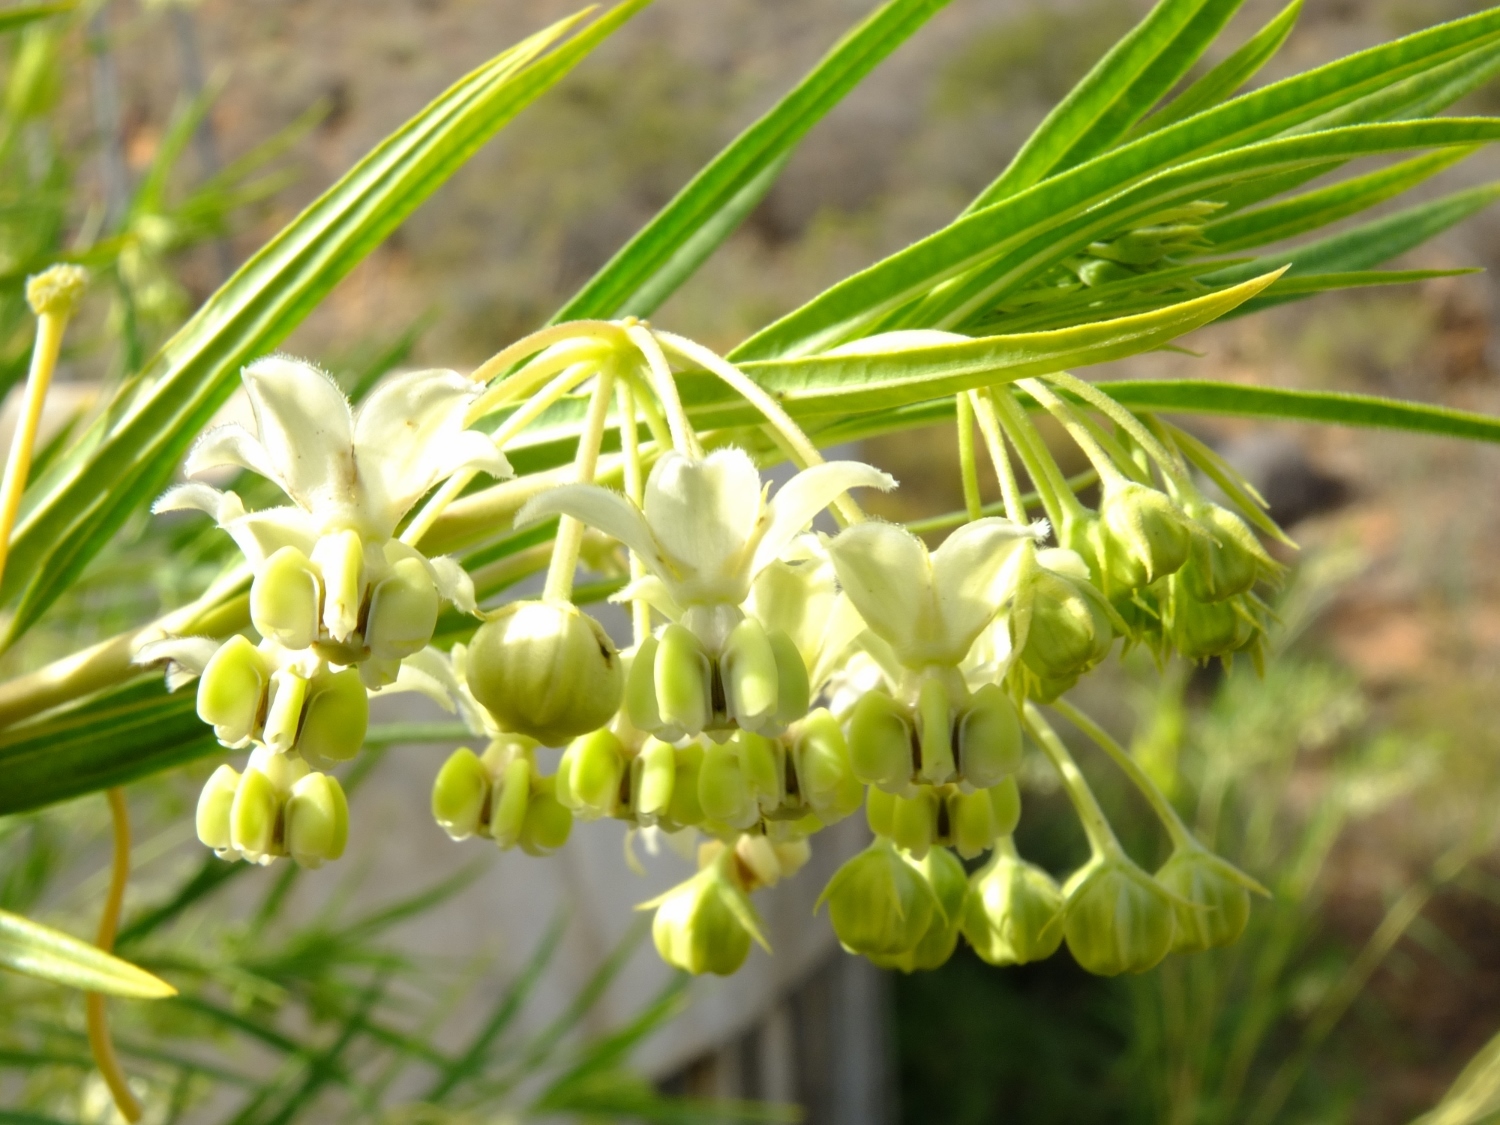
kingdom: Plantae
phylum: Tracheophyta
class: Magnoliopsida
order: Gentianales
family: Apocynaceae
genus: Gomphocarpus
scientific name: Gomphocarpus fruticosus
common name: Milkweed
